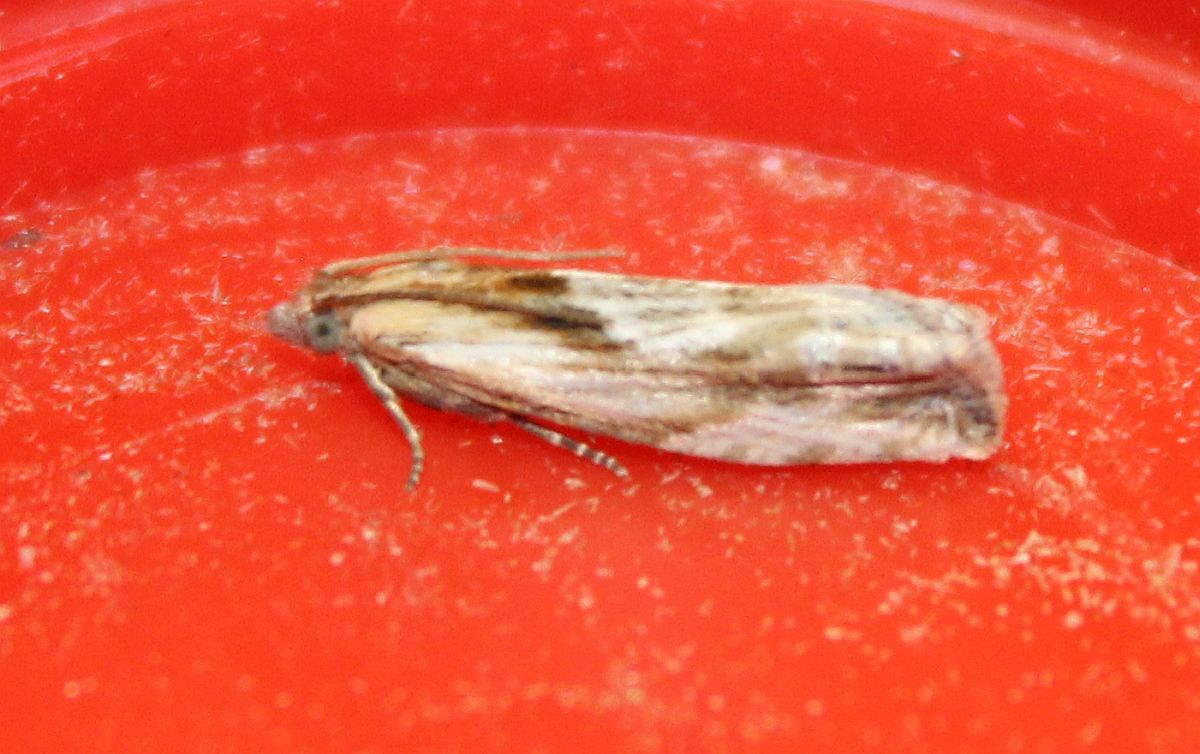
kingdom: Animalia
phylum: Arthropoda
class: Insecta
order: Lepidoptera
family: Tortricidae
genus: Eucosma
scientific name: Eucosma cana
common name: Hoary belle
